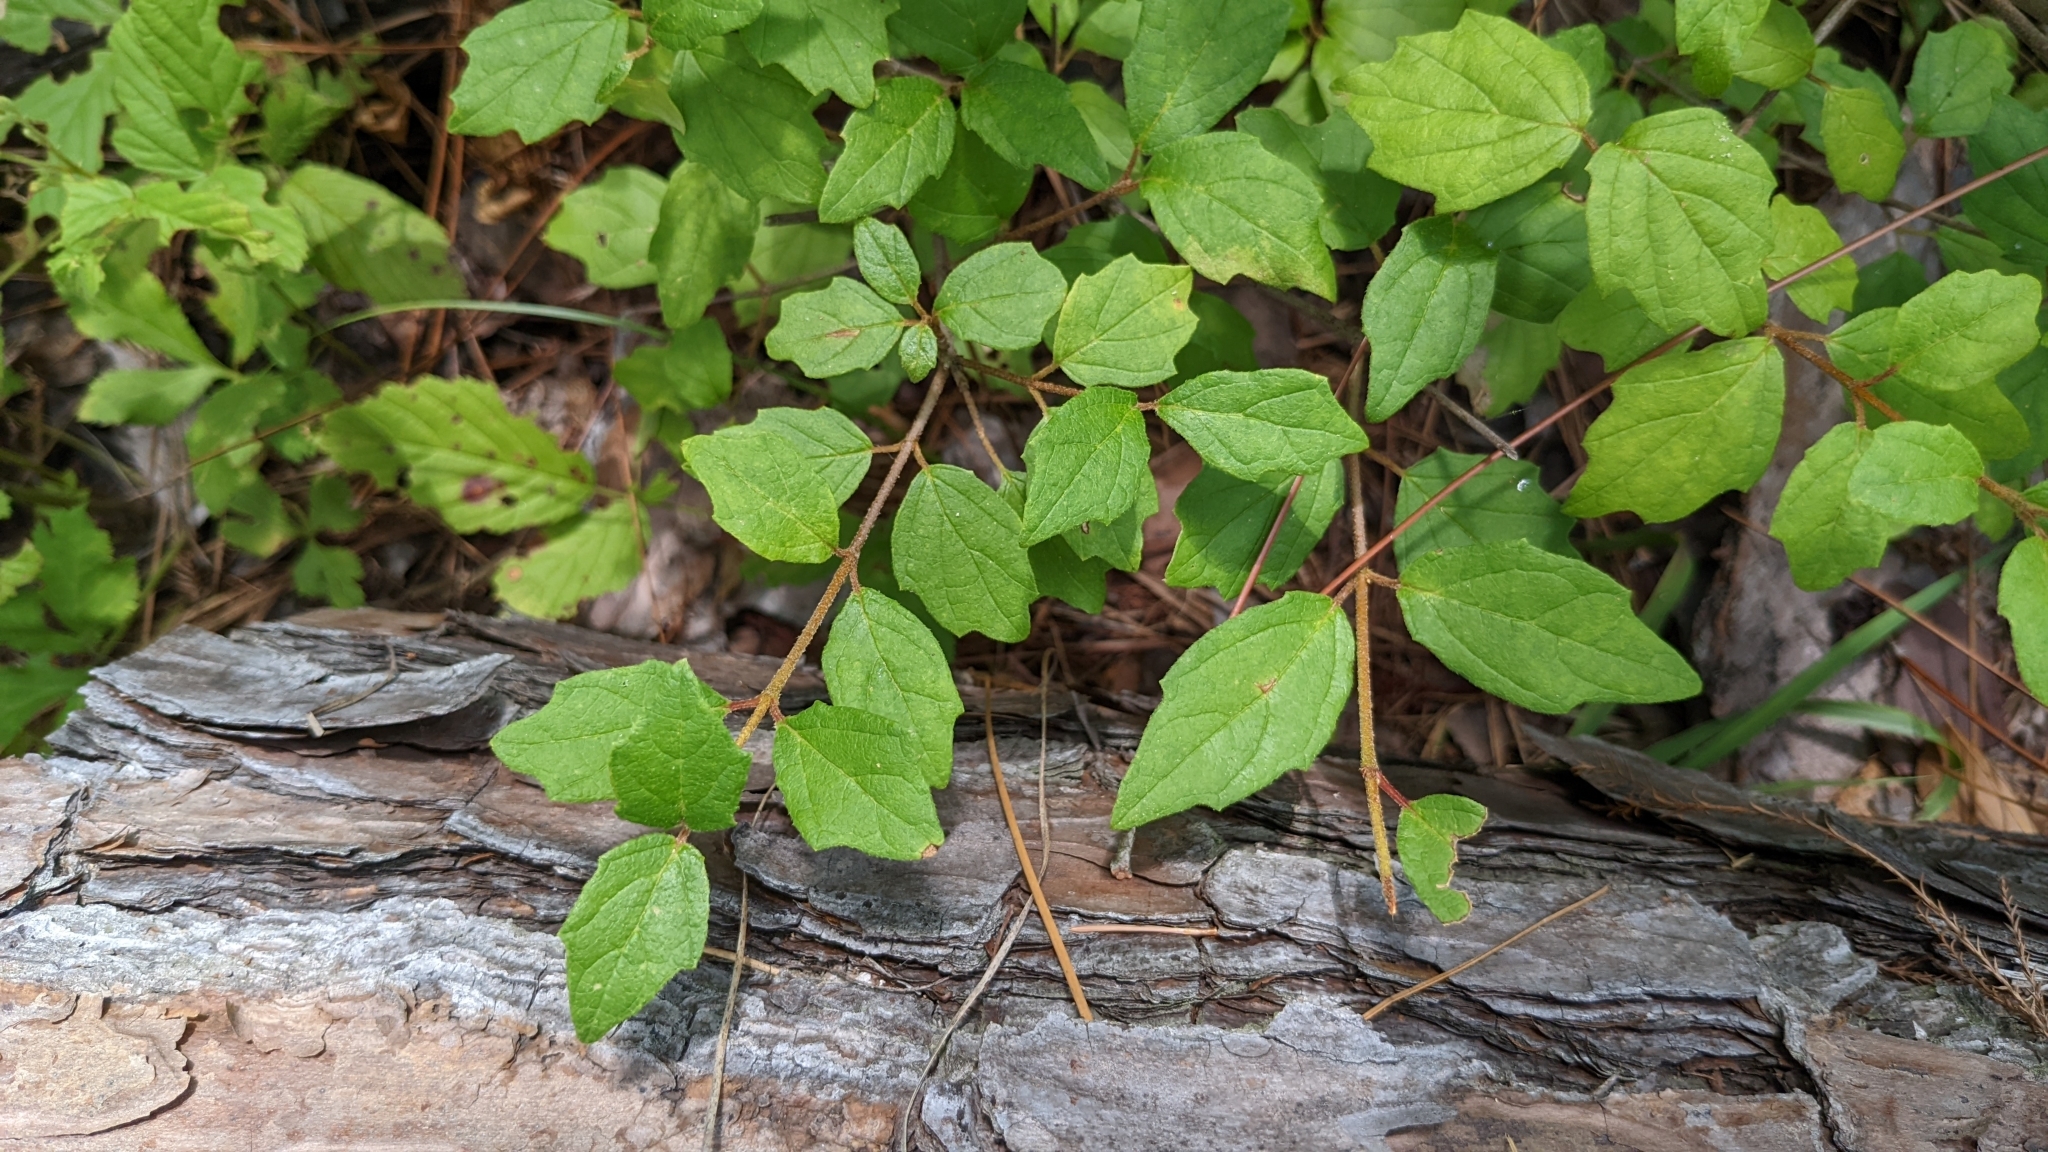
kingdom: Plantae
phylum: Tracheophyta
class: Magnoliopsida
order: Dipsacales
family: Viburnaceae
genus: Viburnum
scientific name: Viburnum scabrellum
